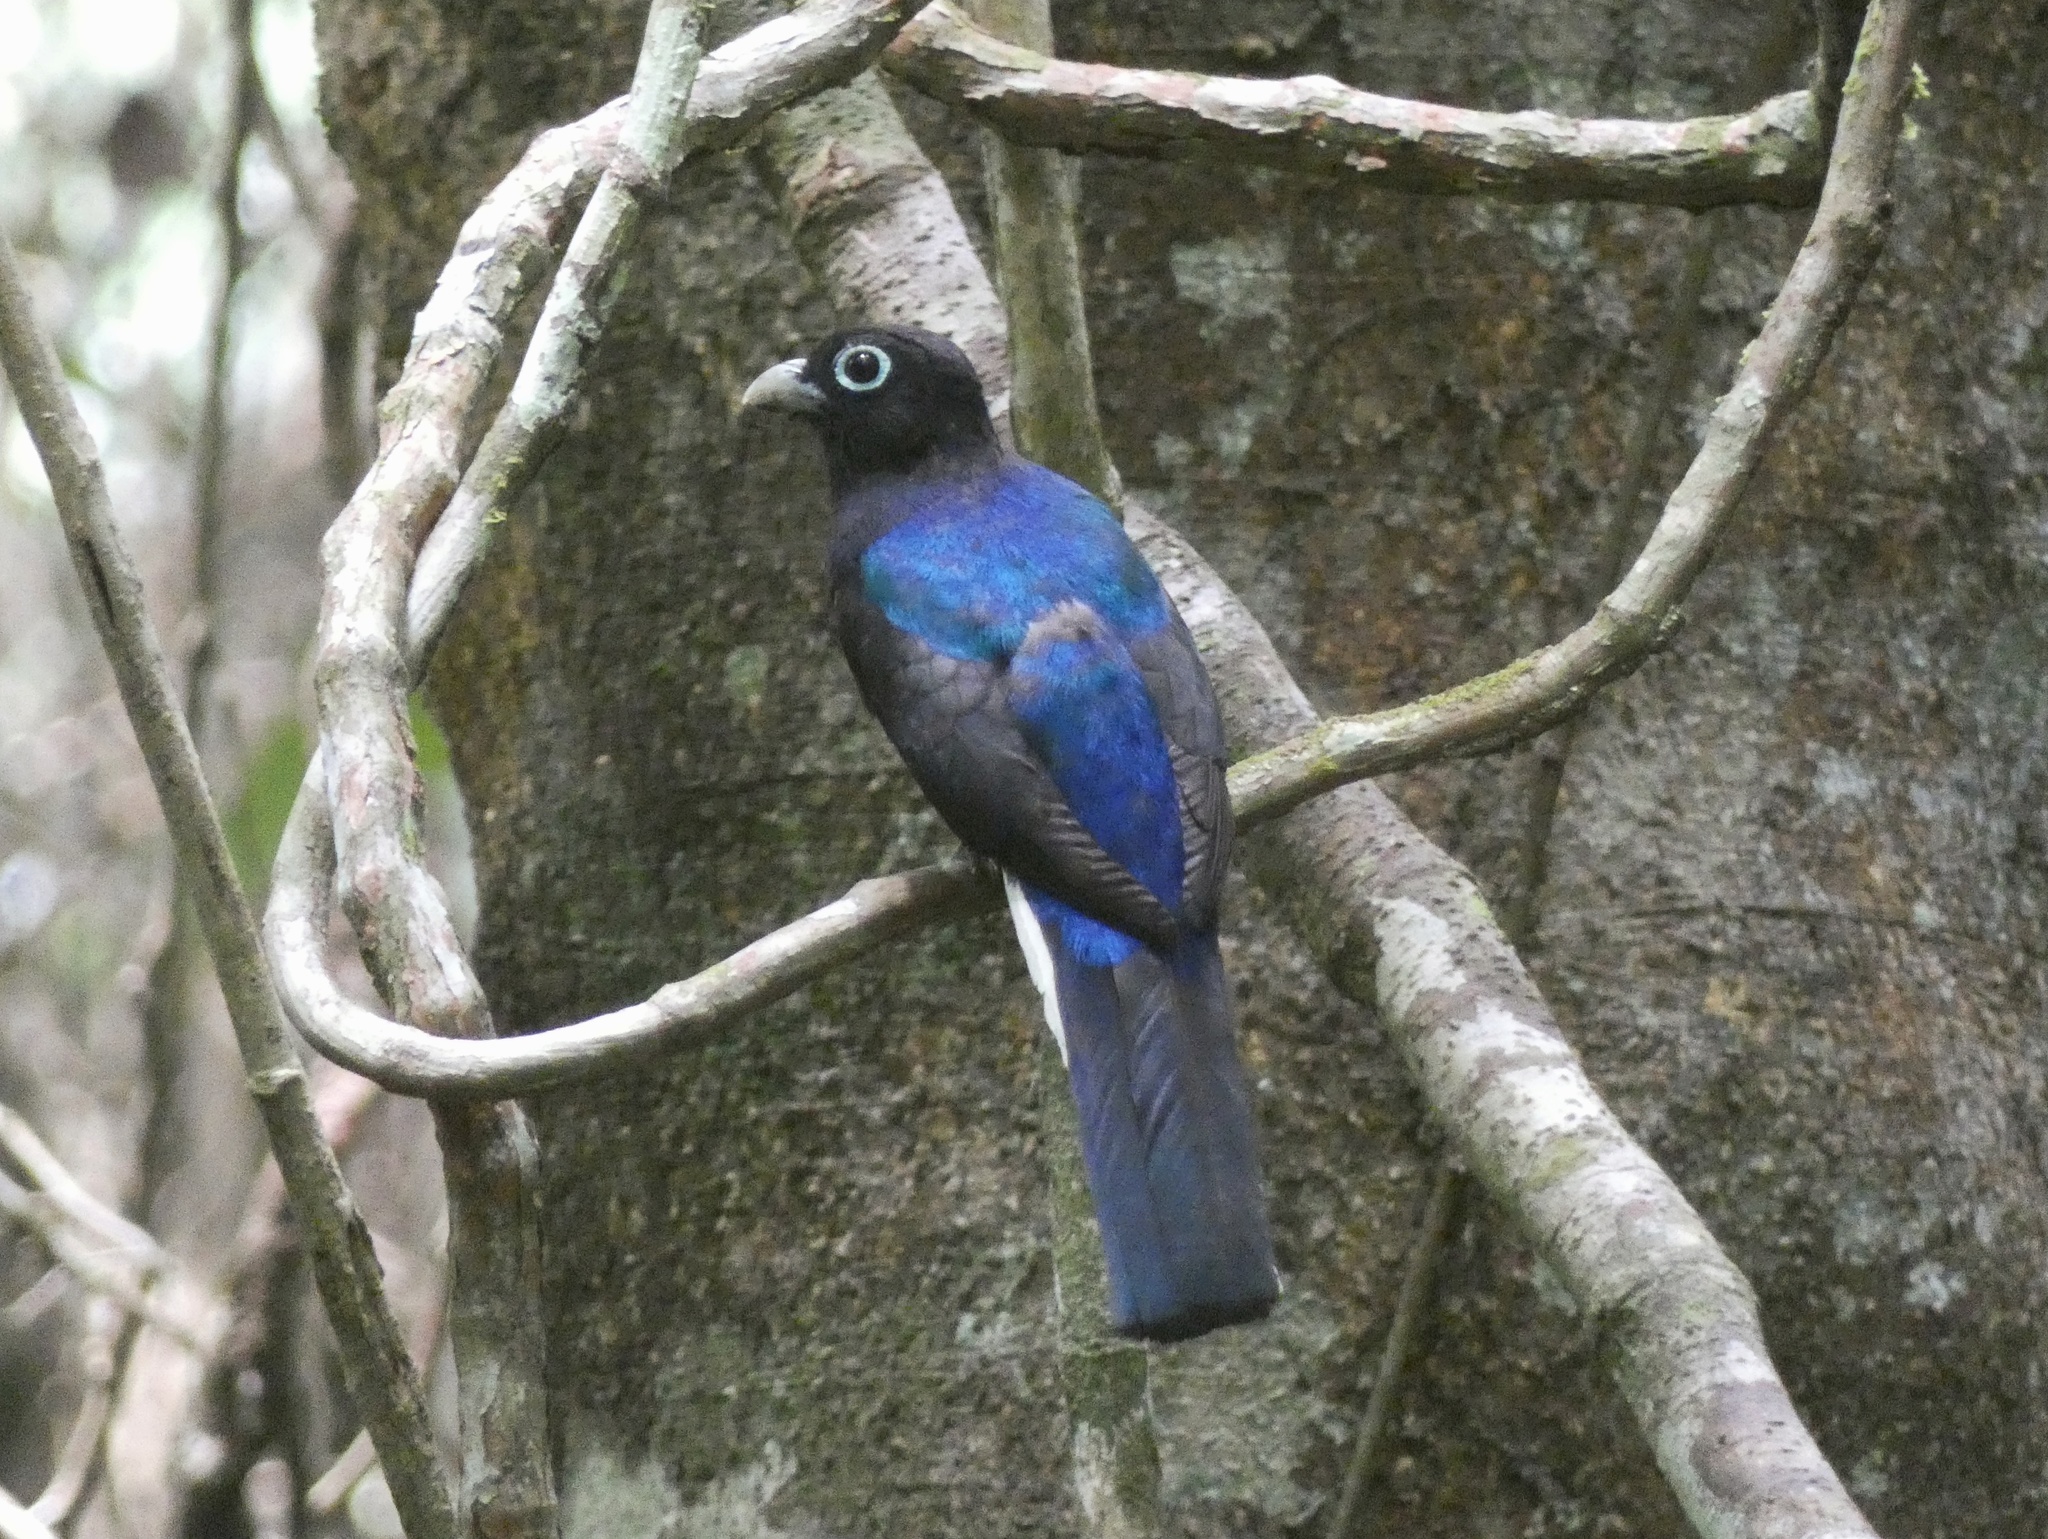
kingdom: Animalia
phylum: Chordata
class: Aves
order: Trogoniformes
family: Trogonidae
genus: Trogon
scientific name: Trogon chionurus
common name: White-tailed trogon
